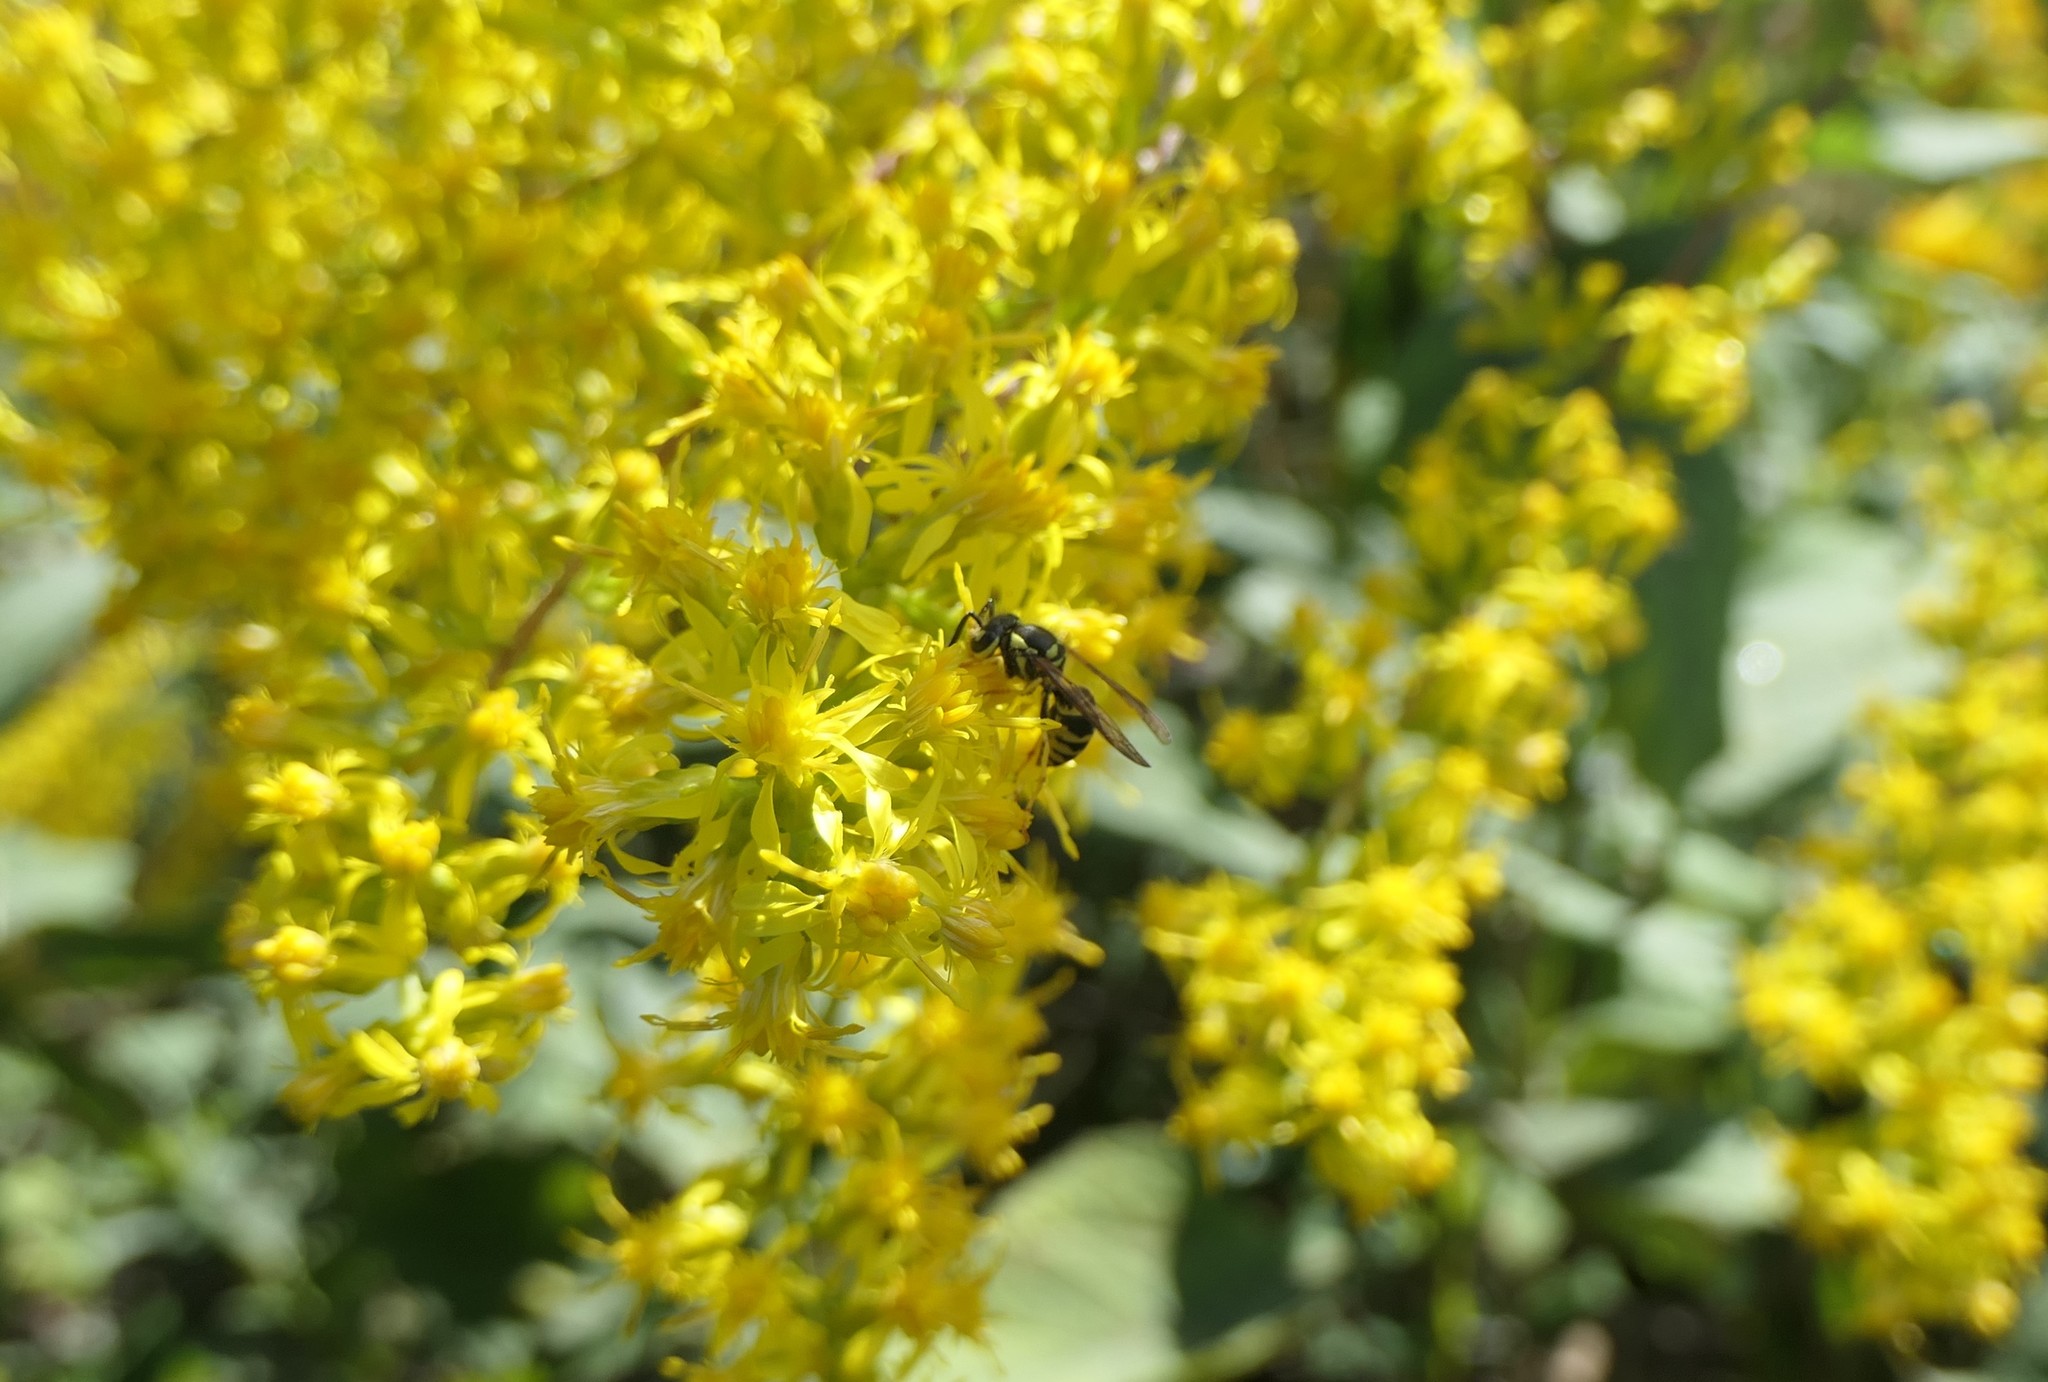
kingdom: Animalia
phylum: Arthropoda
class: Insecta
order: Hymenoptera
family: Vespidae
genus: Vespula
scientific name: Vespula maculifrons
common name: Eastern yellowjacket
